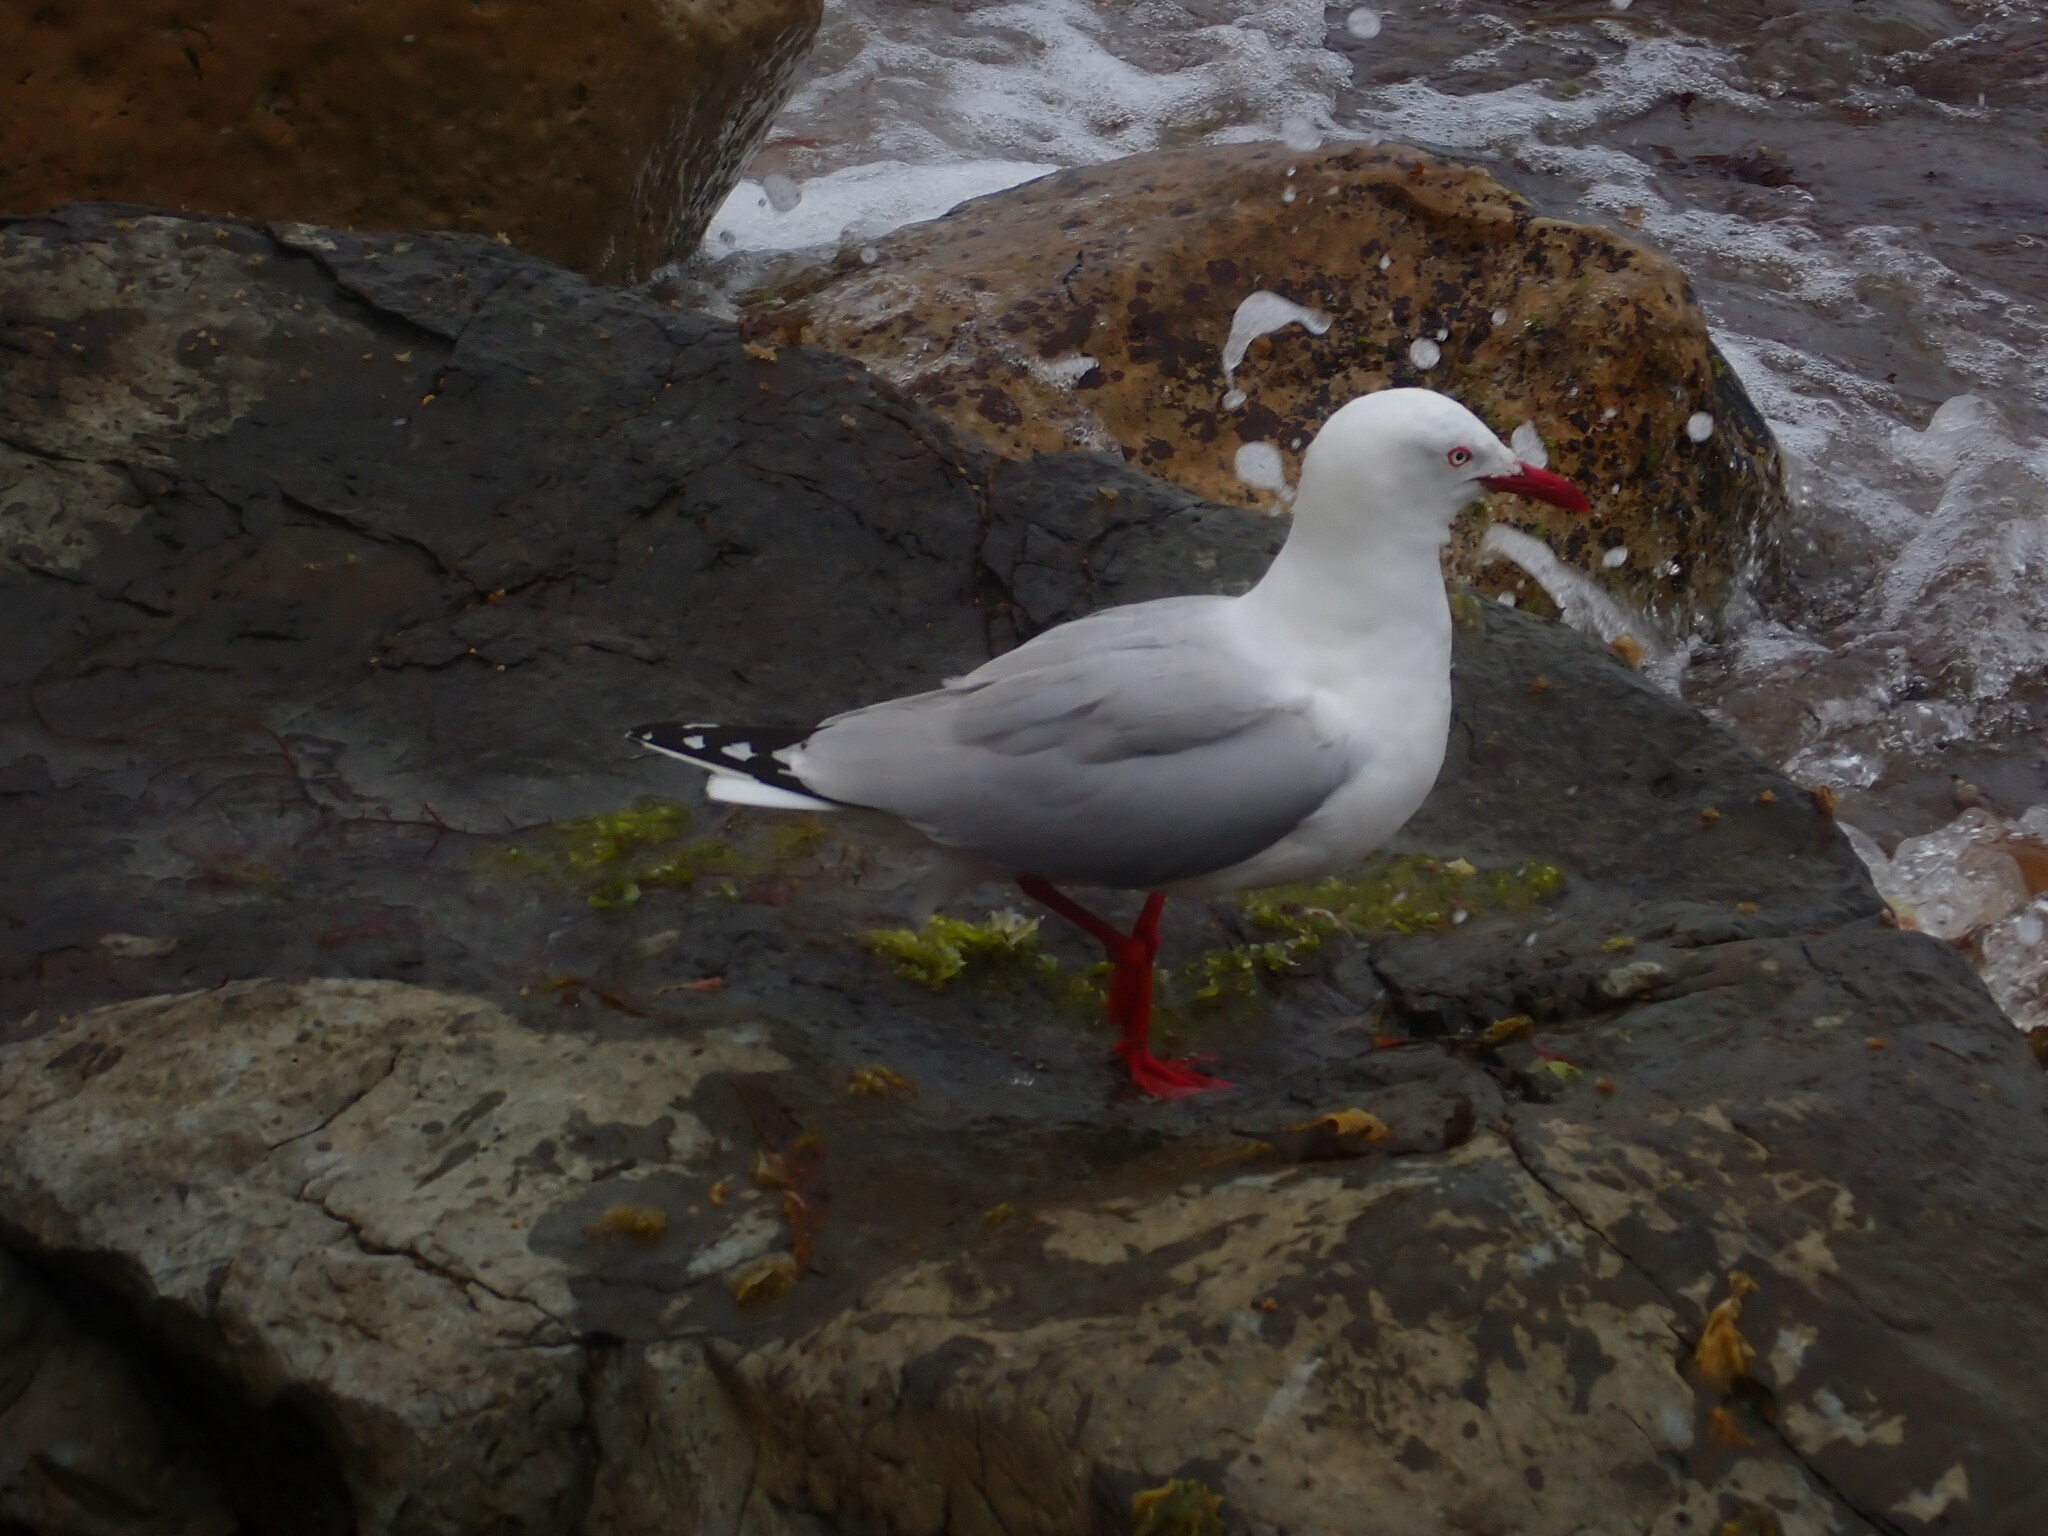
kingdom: Animalia
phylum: Chordata
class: Aves
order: Charadriiformes
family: Laridae
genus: Chroicocephalus
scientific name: Chroicocephalus novaehollandiae
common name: Silver gull
